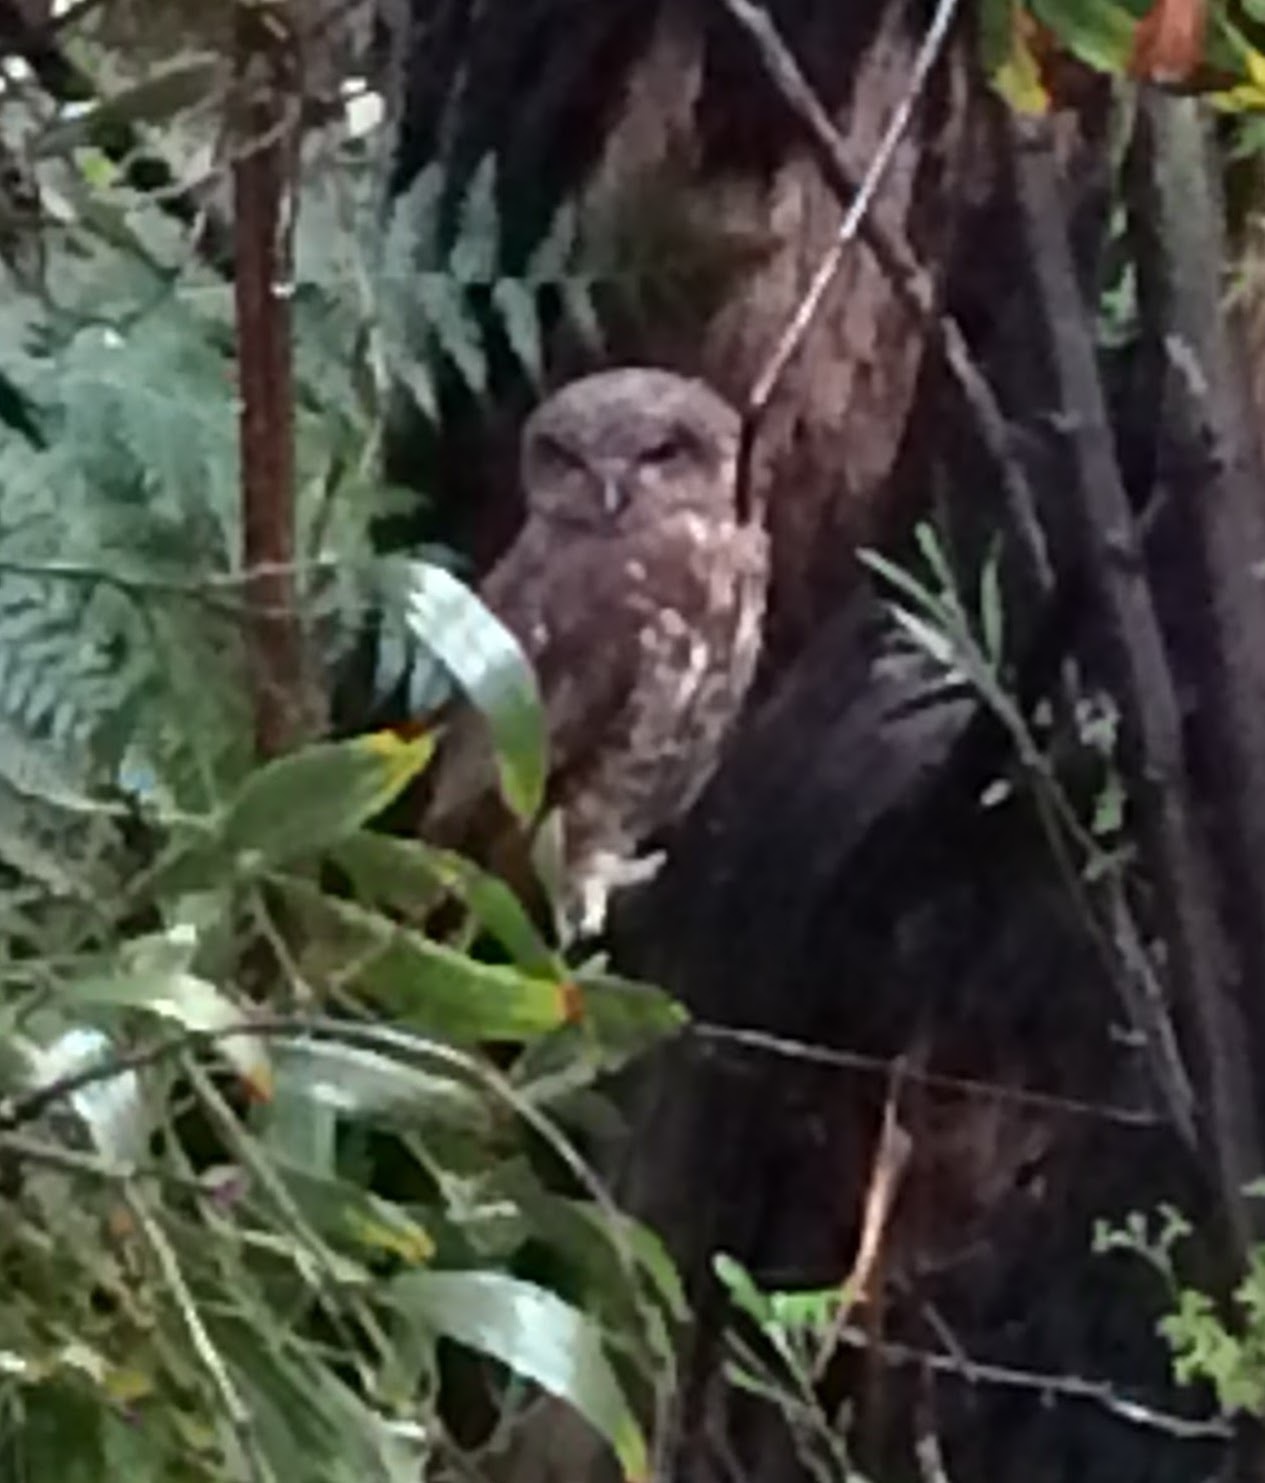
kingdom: Animalia
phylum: Chordata
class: Aves
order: Strigiformes
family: Strigidae
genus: Ninox
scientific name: Ninox boobook
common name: Southern boobook
